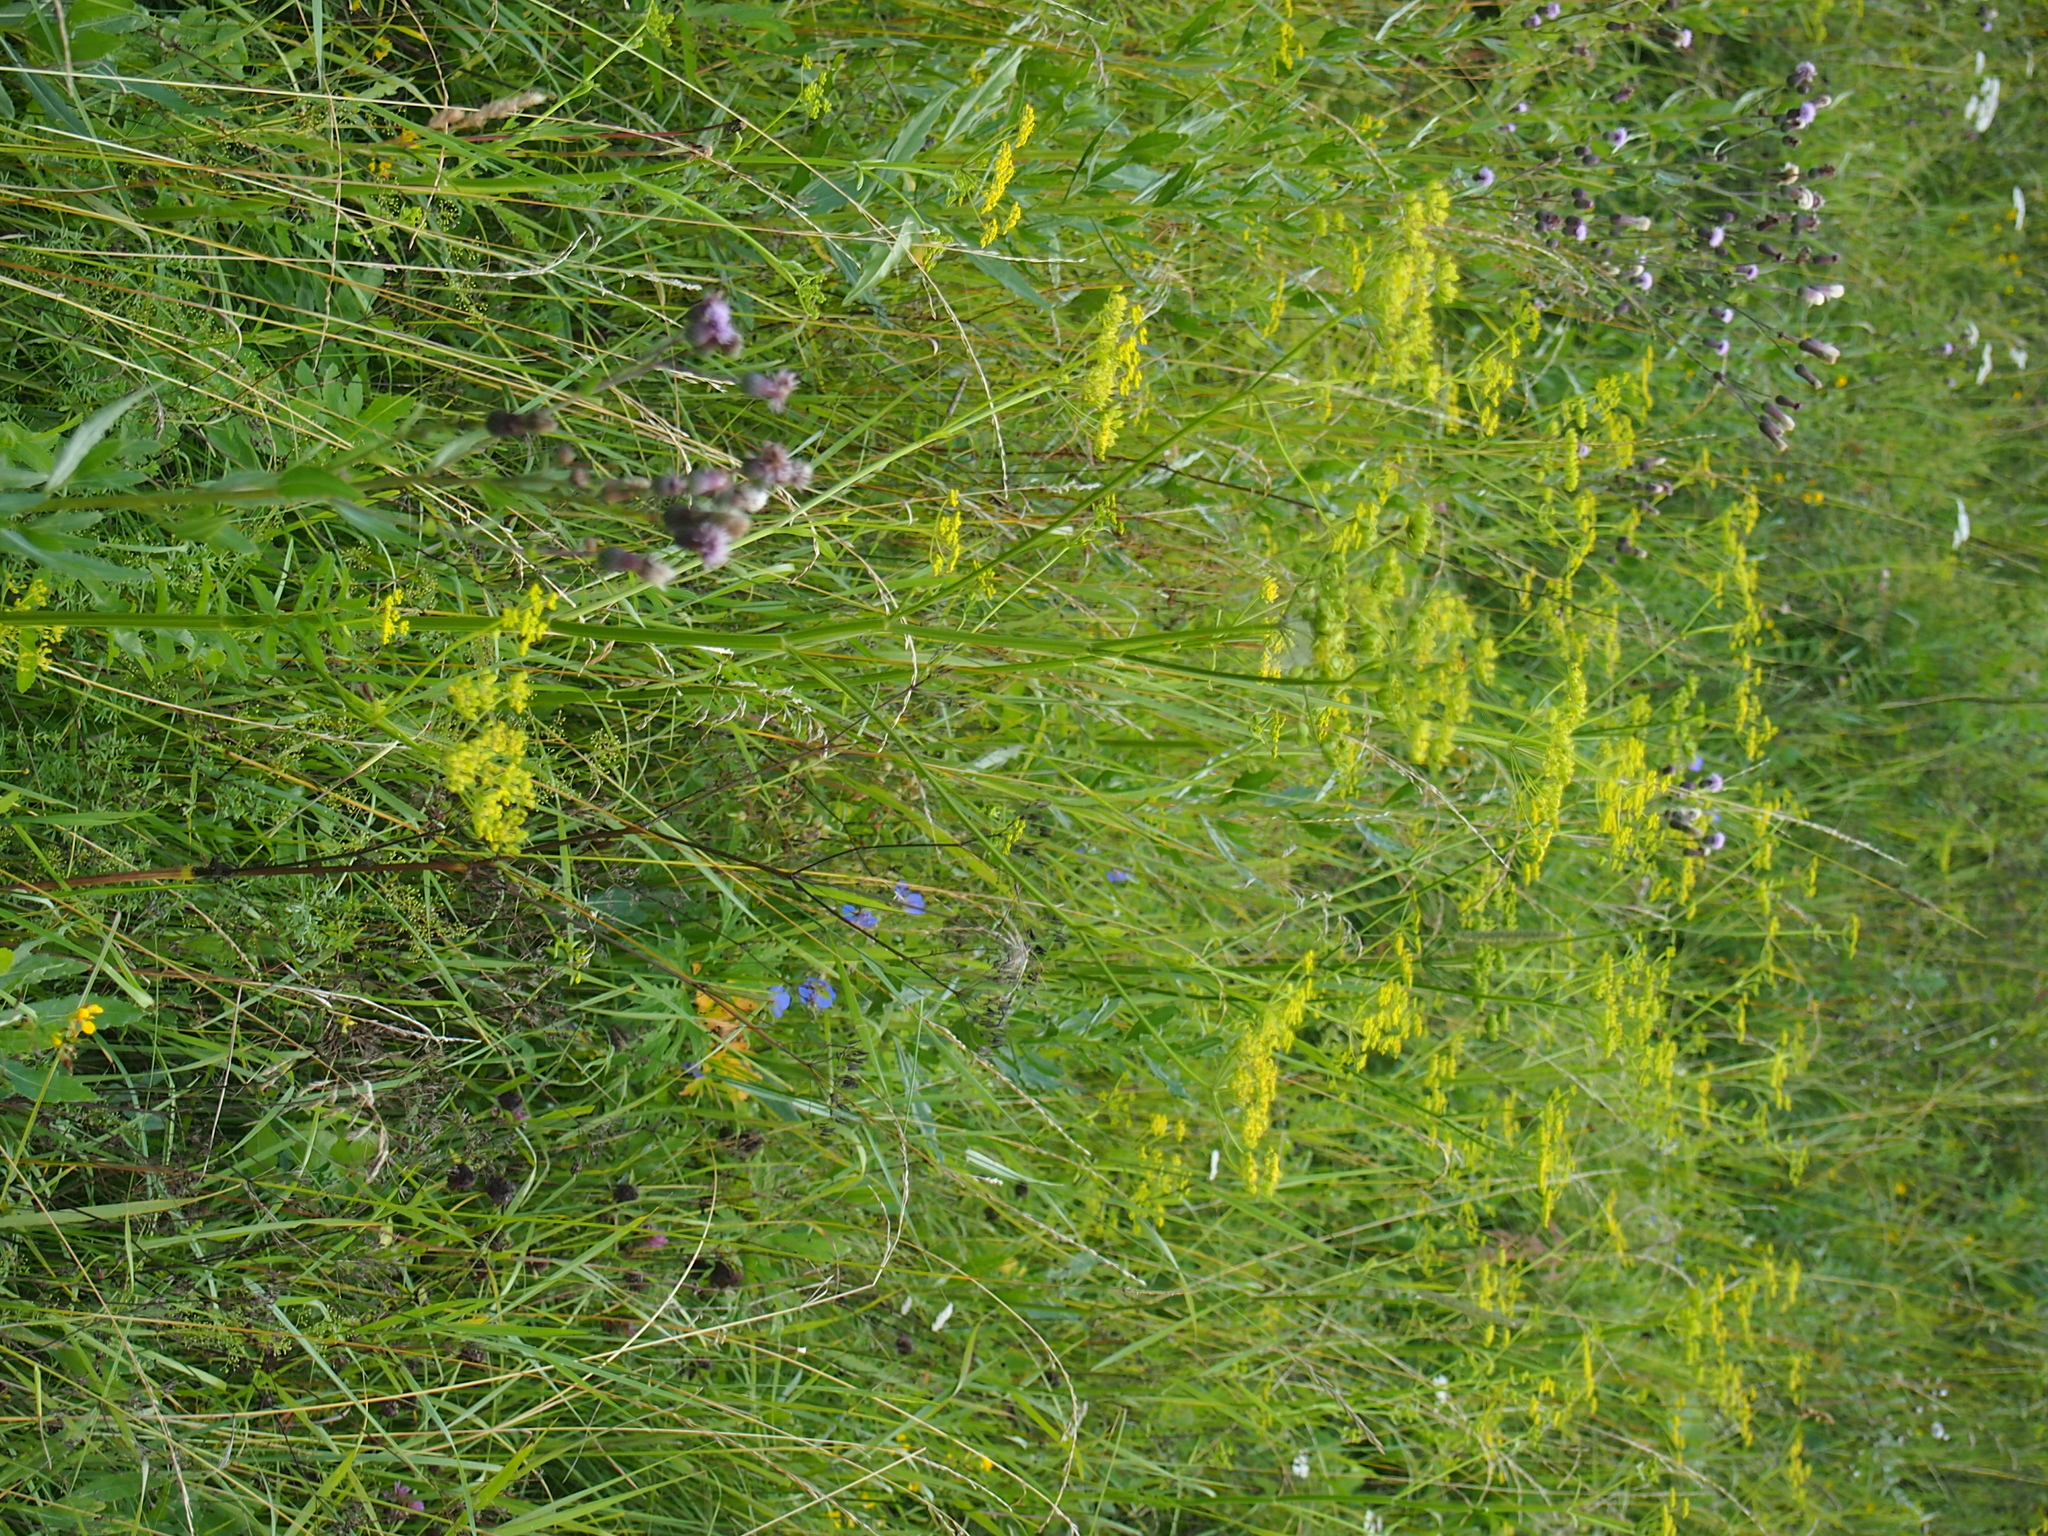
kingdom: Plantae
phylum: Tracheophyta
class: Magnoliopsida
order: Apiales
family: Apiaceae
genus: Pastinaca
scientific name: Pastinaca sativa
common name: Wild parsnip
